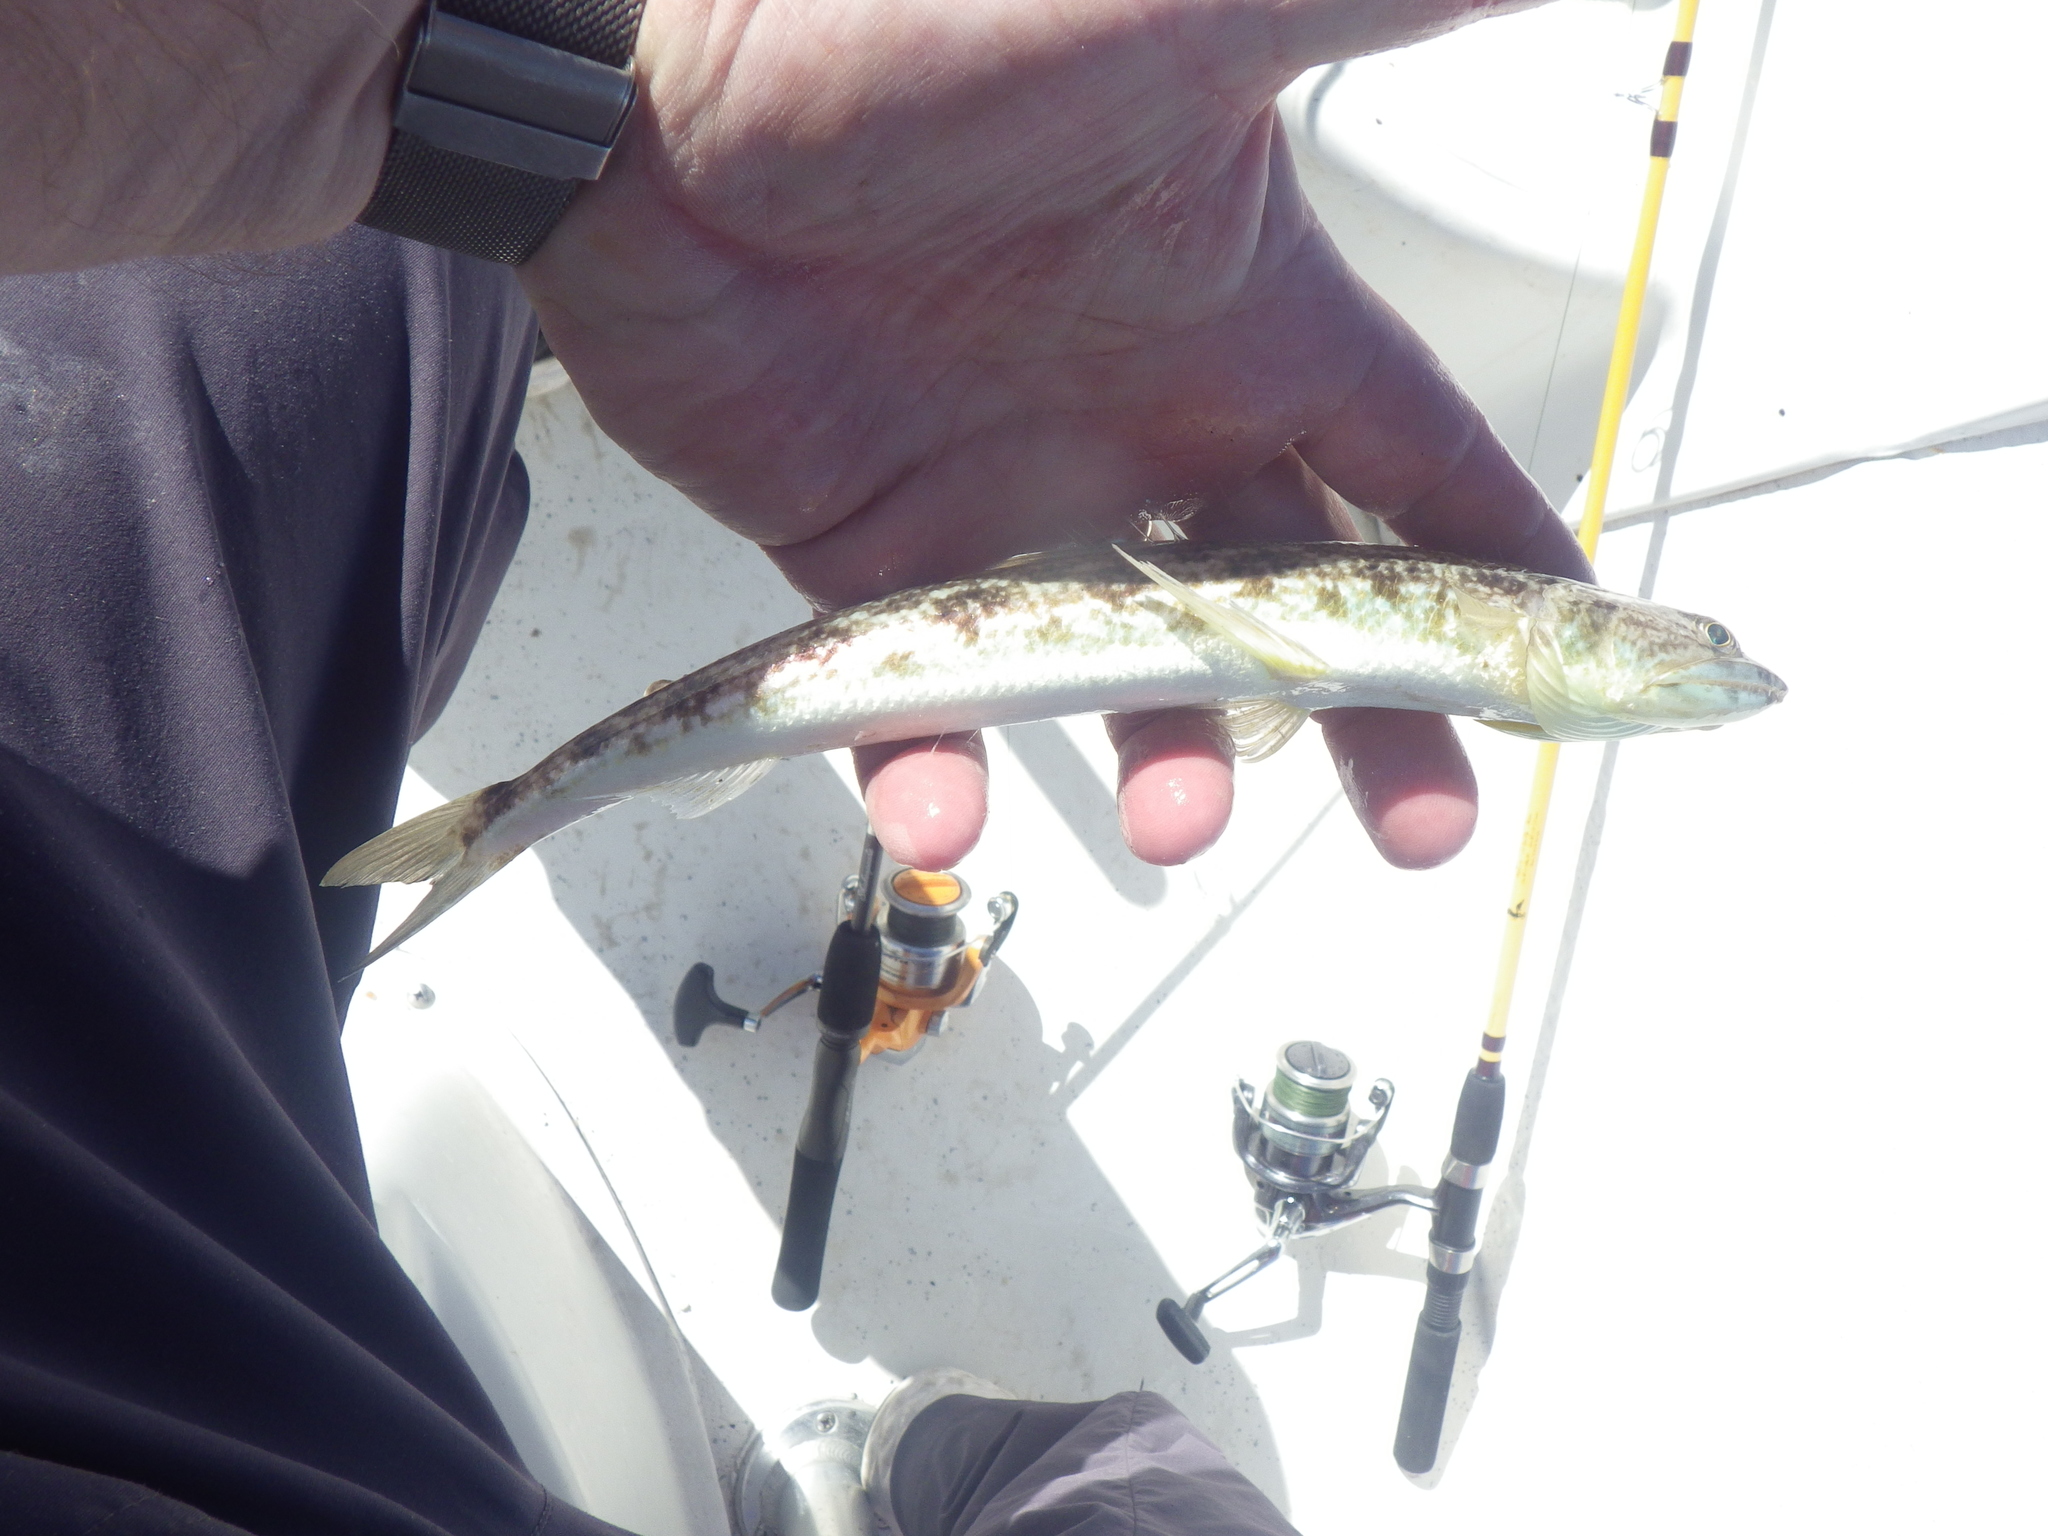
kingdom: Animalia
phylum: Chordata
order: Aulopiformes
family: Synodontidae
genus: Synodus
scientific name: Synodus foetens
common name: Inshore lizardfish
